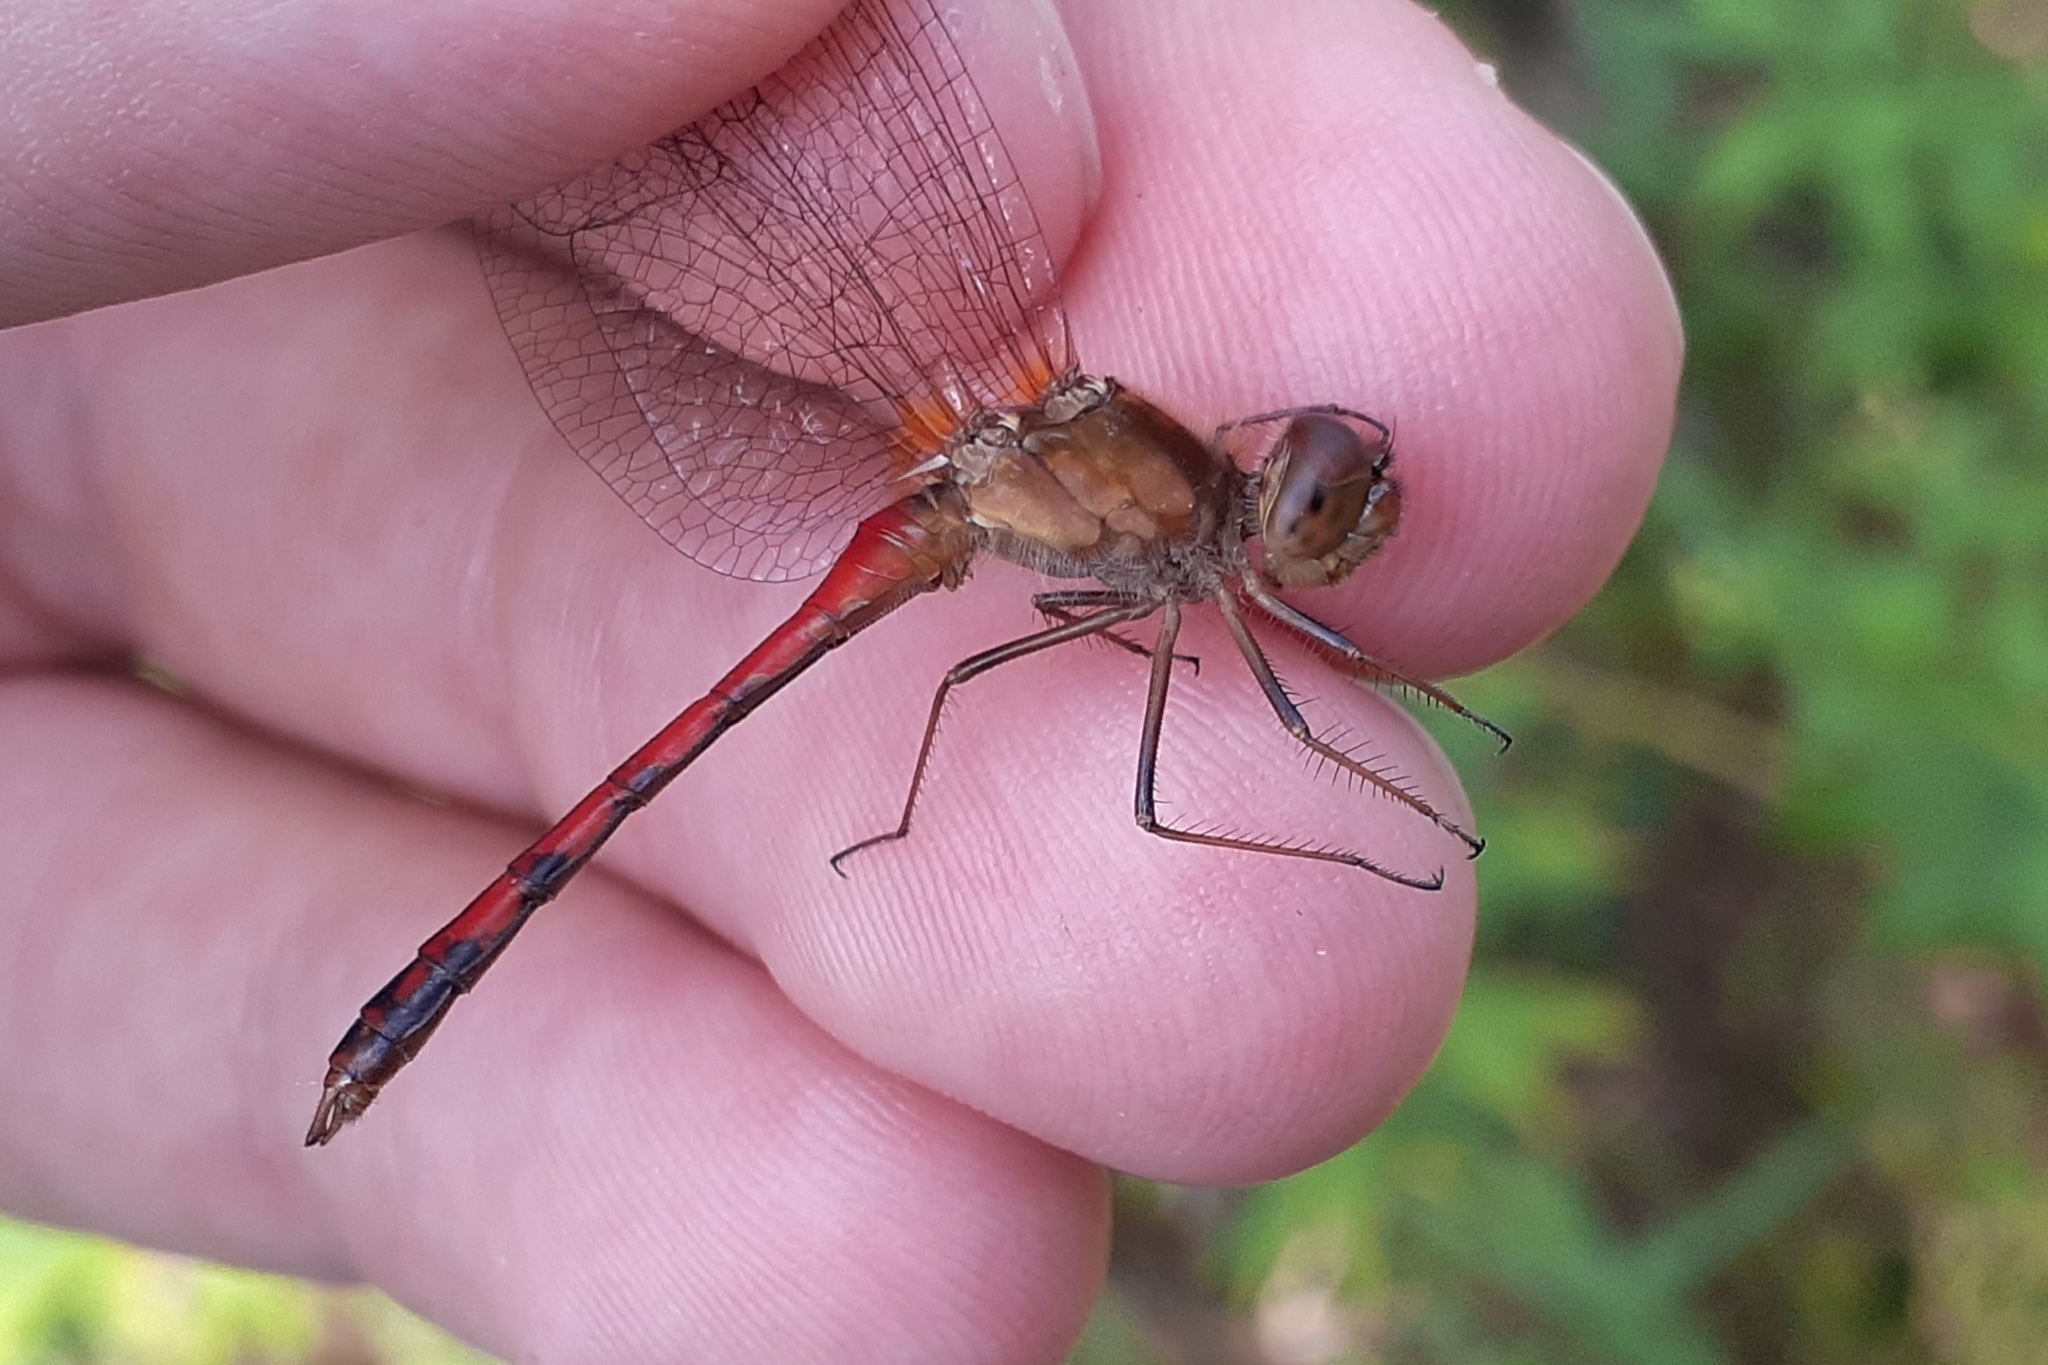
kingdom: Animalia
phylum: Arthropoda
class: Insecta
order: Odonata
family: Libellulidae
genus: Sympetrum
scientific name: Sympetrum vicinum
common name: Autumn meadowhawk
